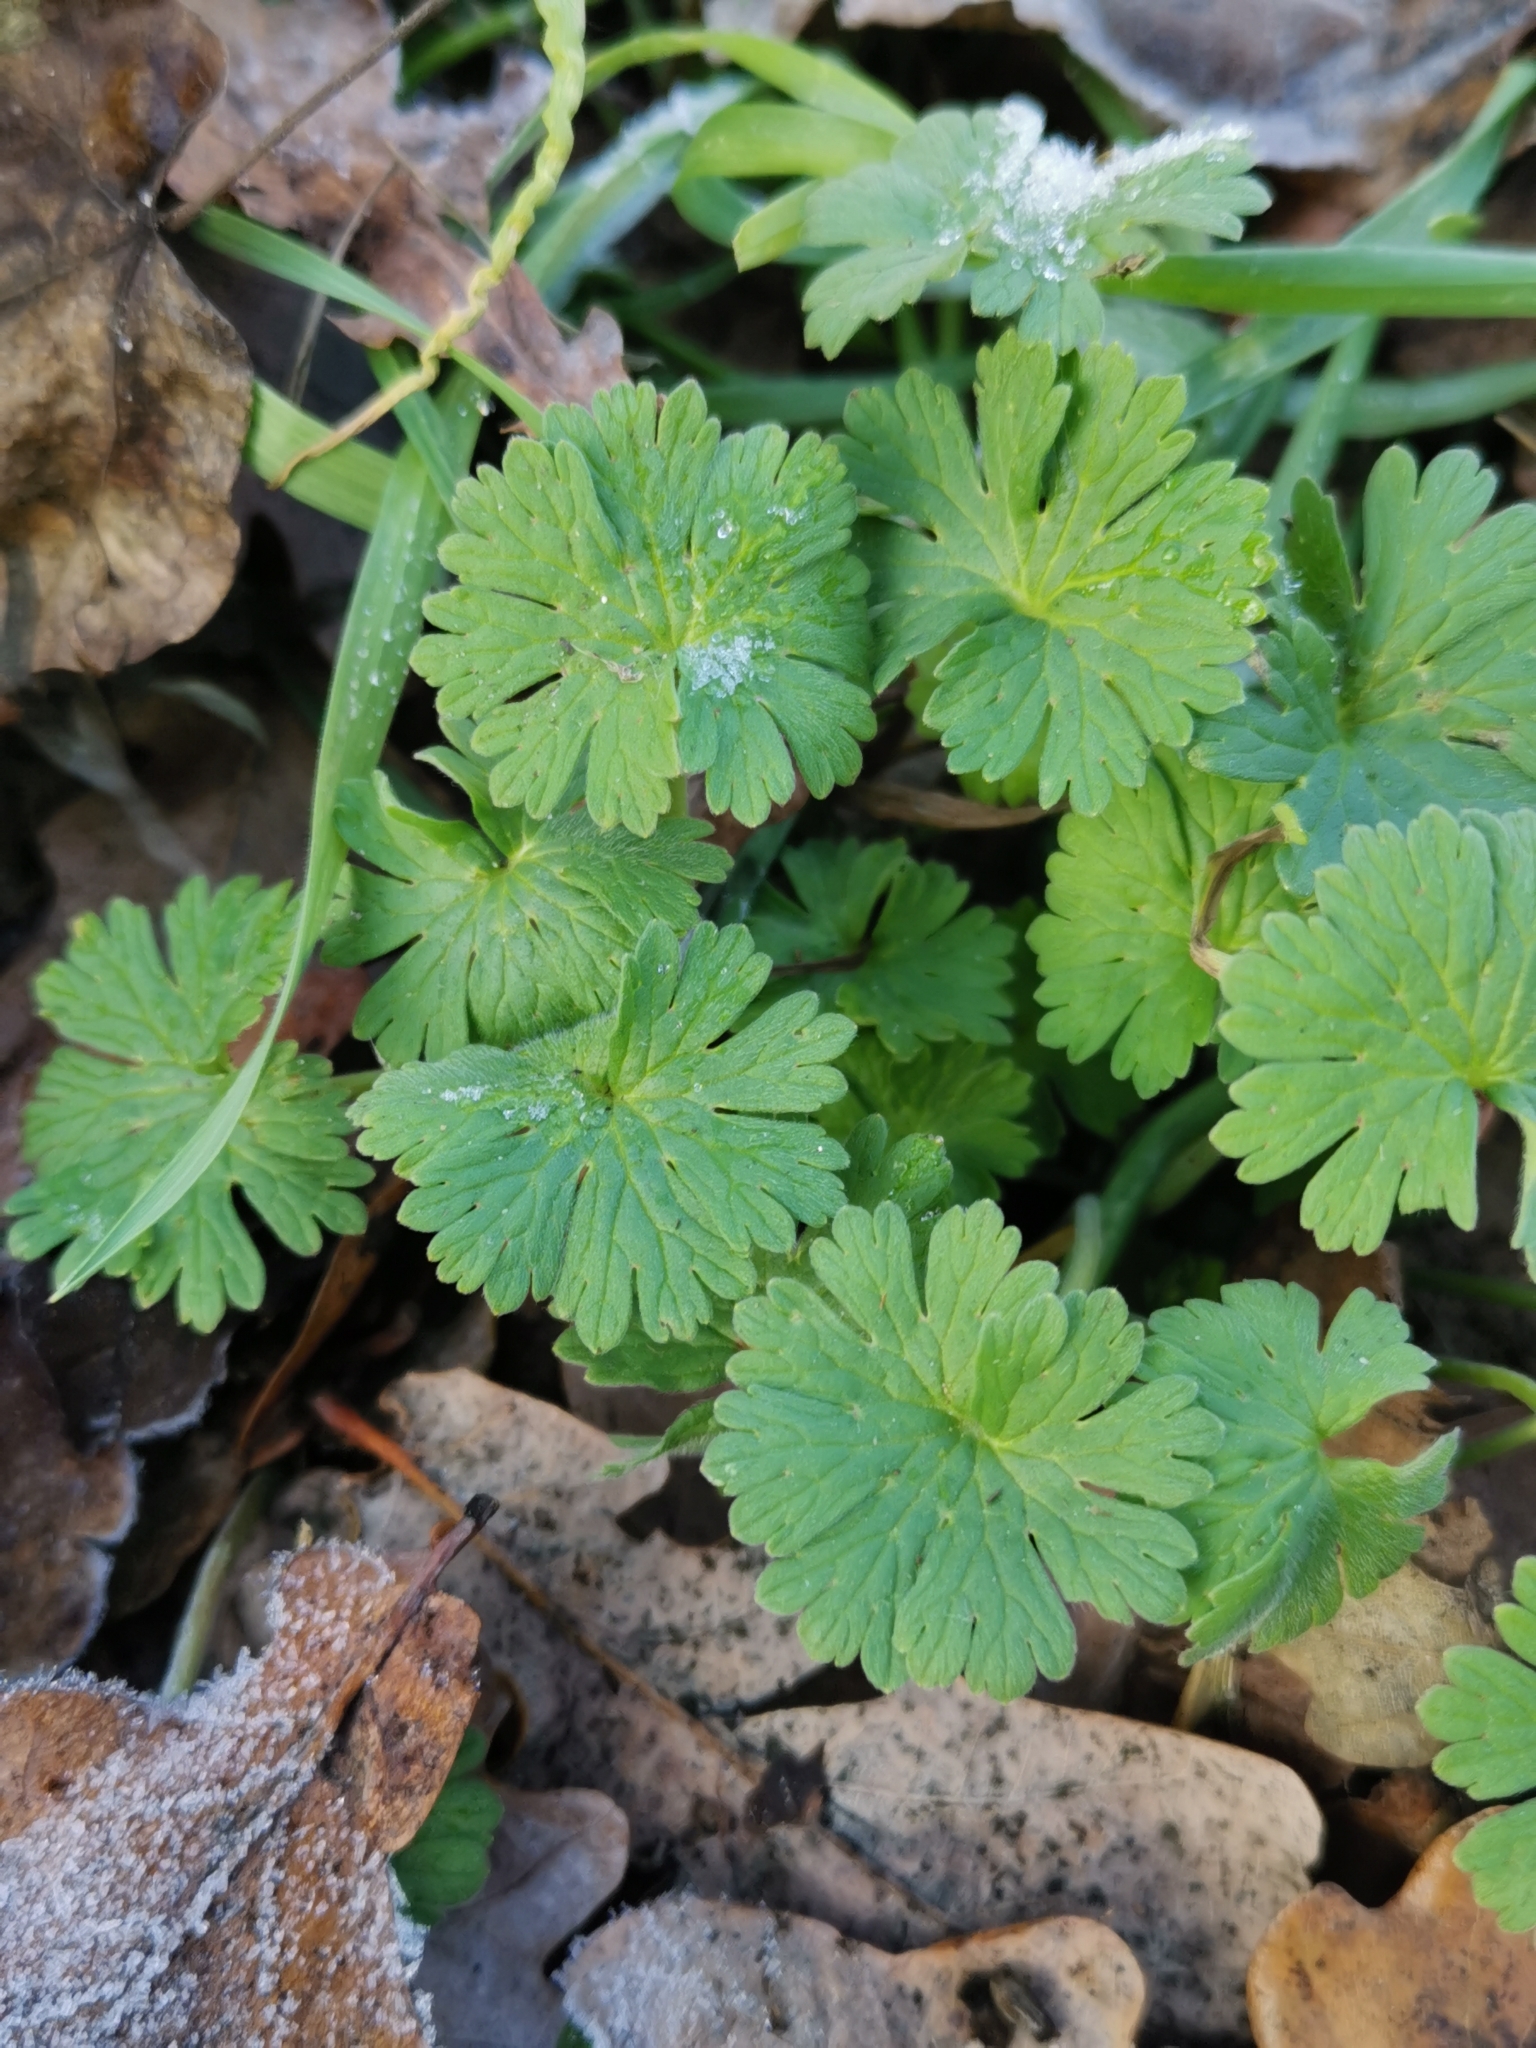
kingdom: Plantae
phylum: Tracheophyta
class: Magnoliopsida
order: Geraniales
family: Geraniaceae
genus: Geranium
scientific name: Geranium molle
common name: Dove's-foot crane's-bill
